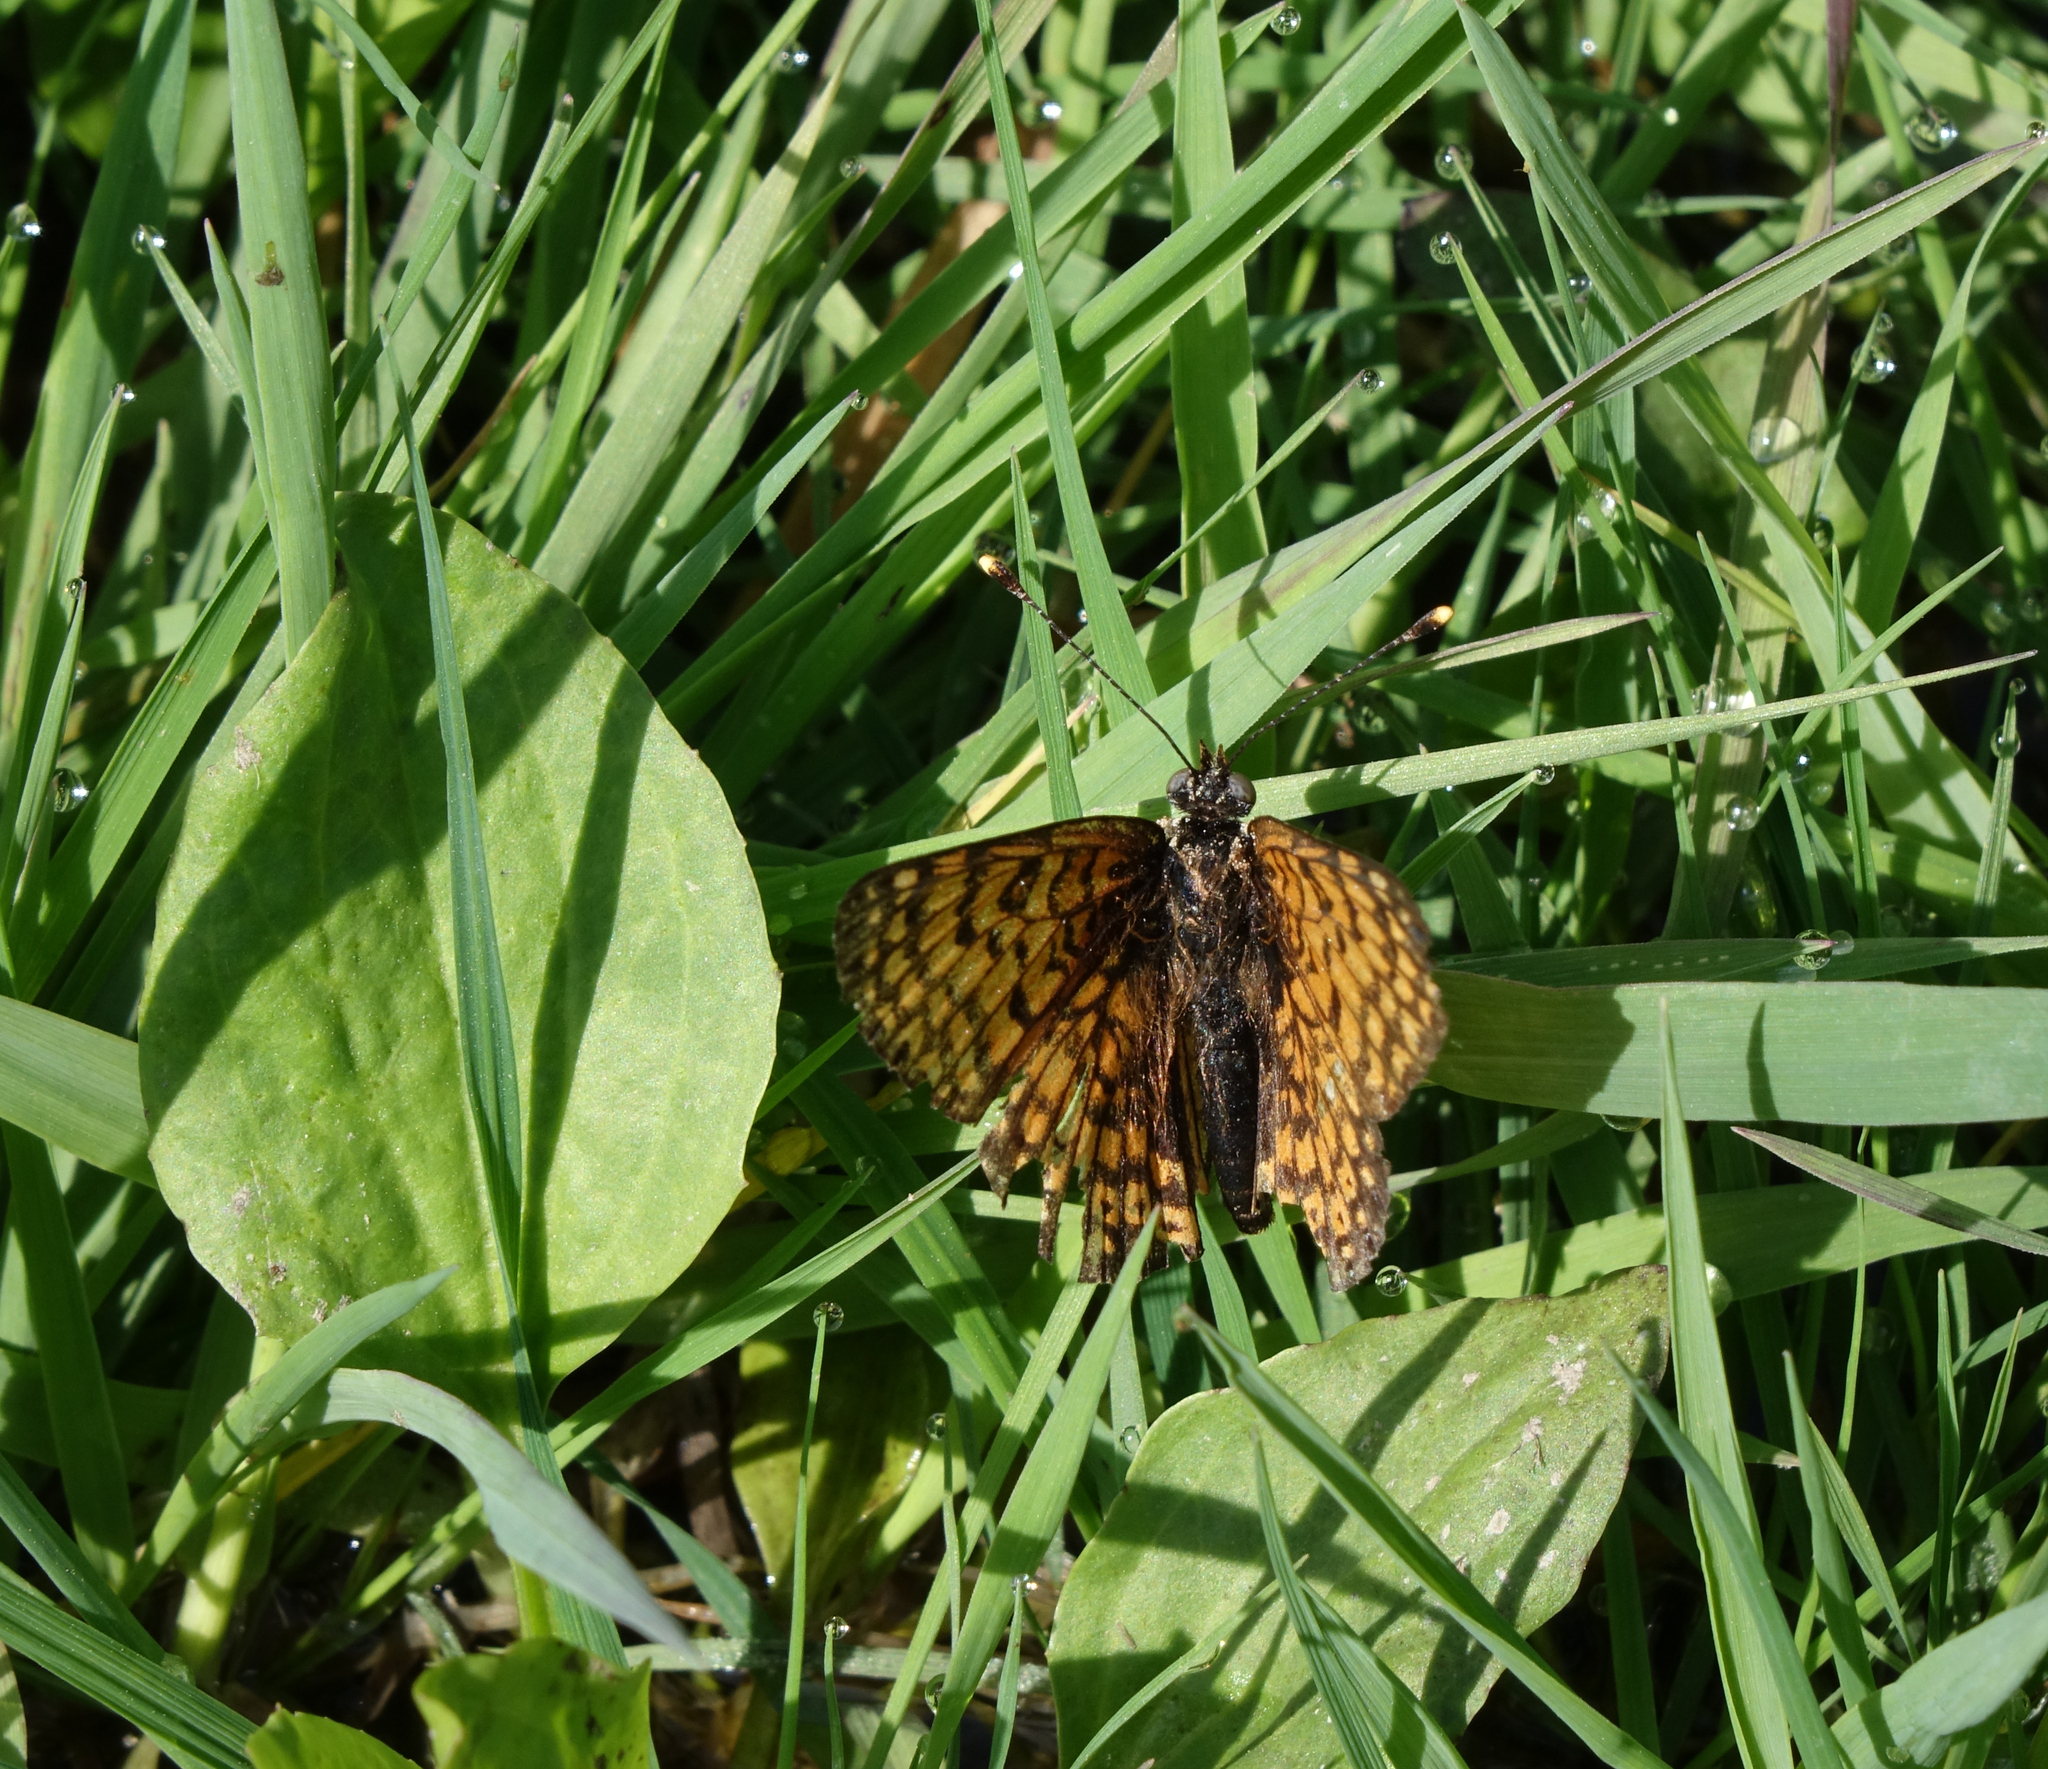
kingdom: Animalia
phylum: Arthropoda
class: Insecta
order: Lepidoptera
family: Nymphalidae
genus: Melitaea
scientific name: Melitaea cinxia
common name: Glanville fritillary
